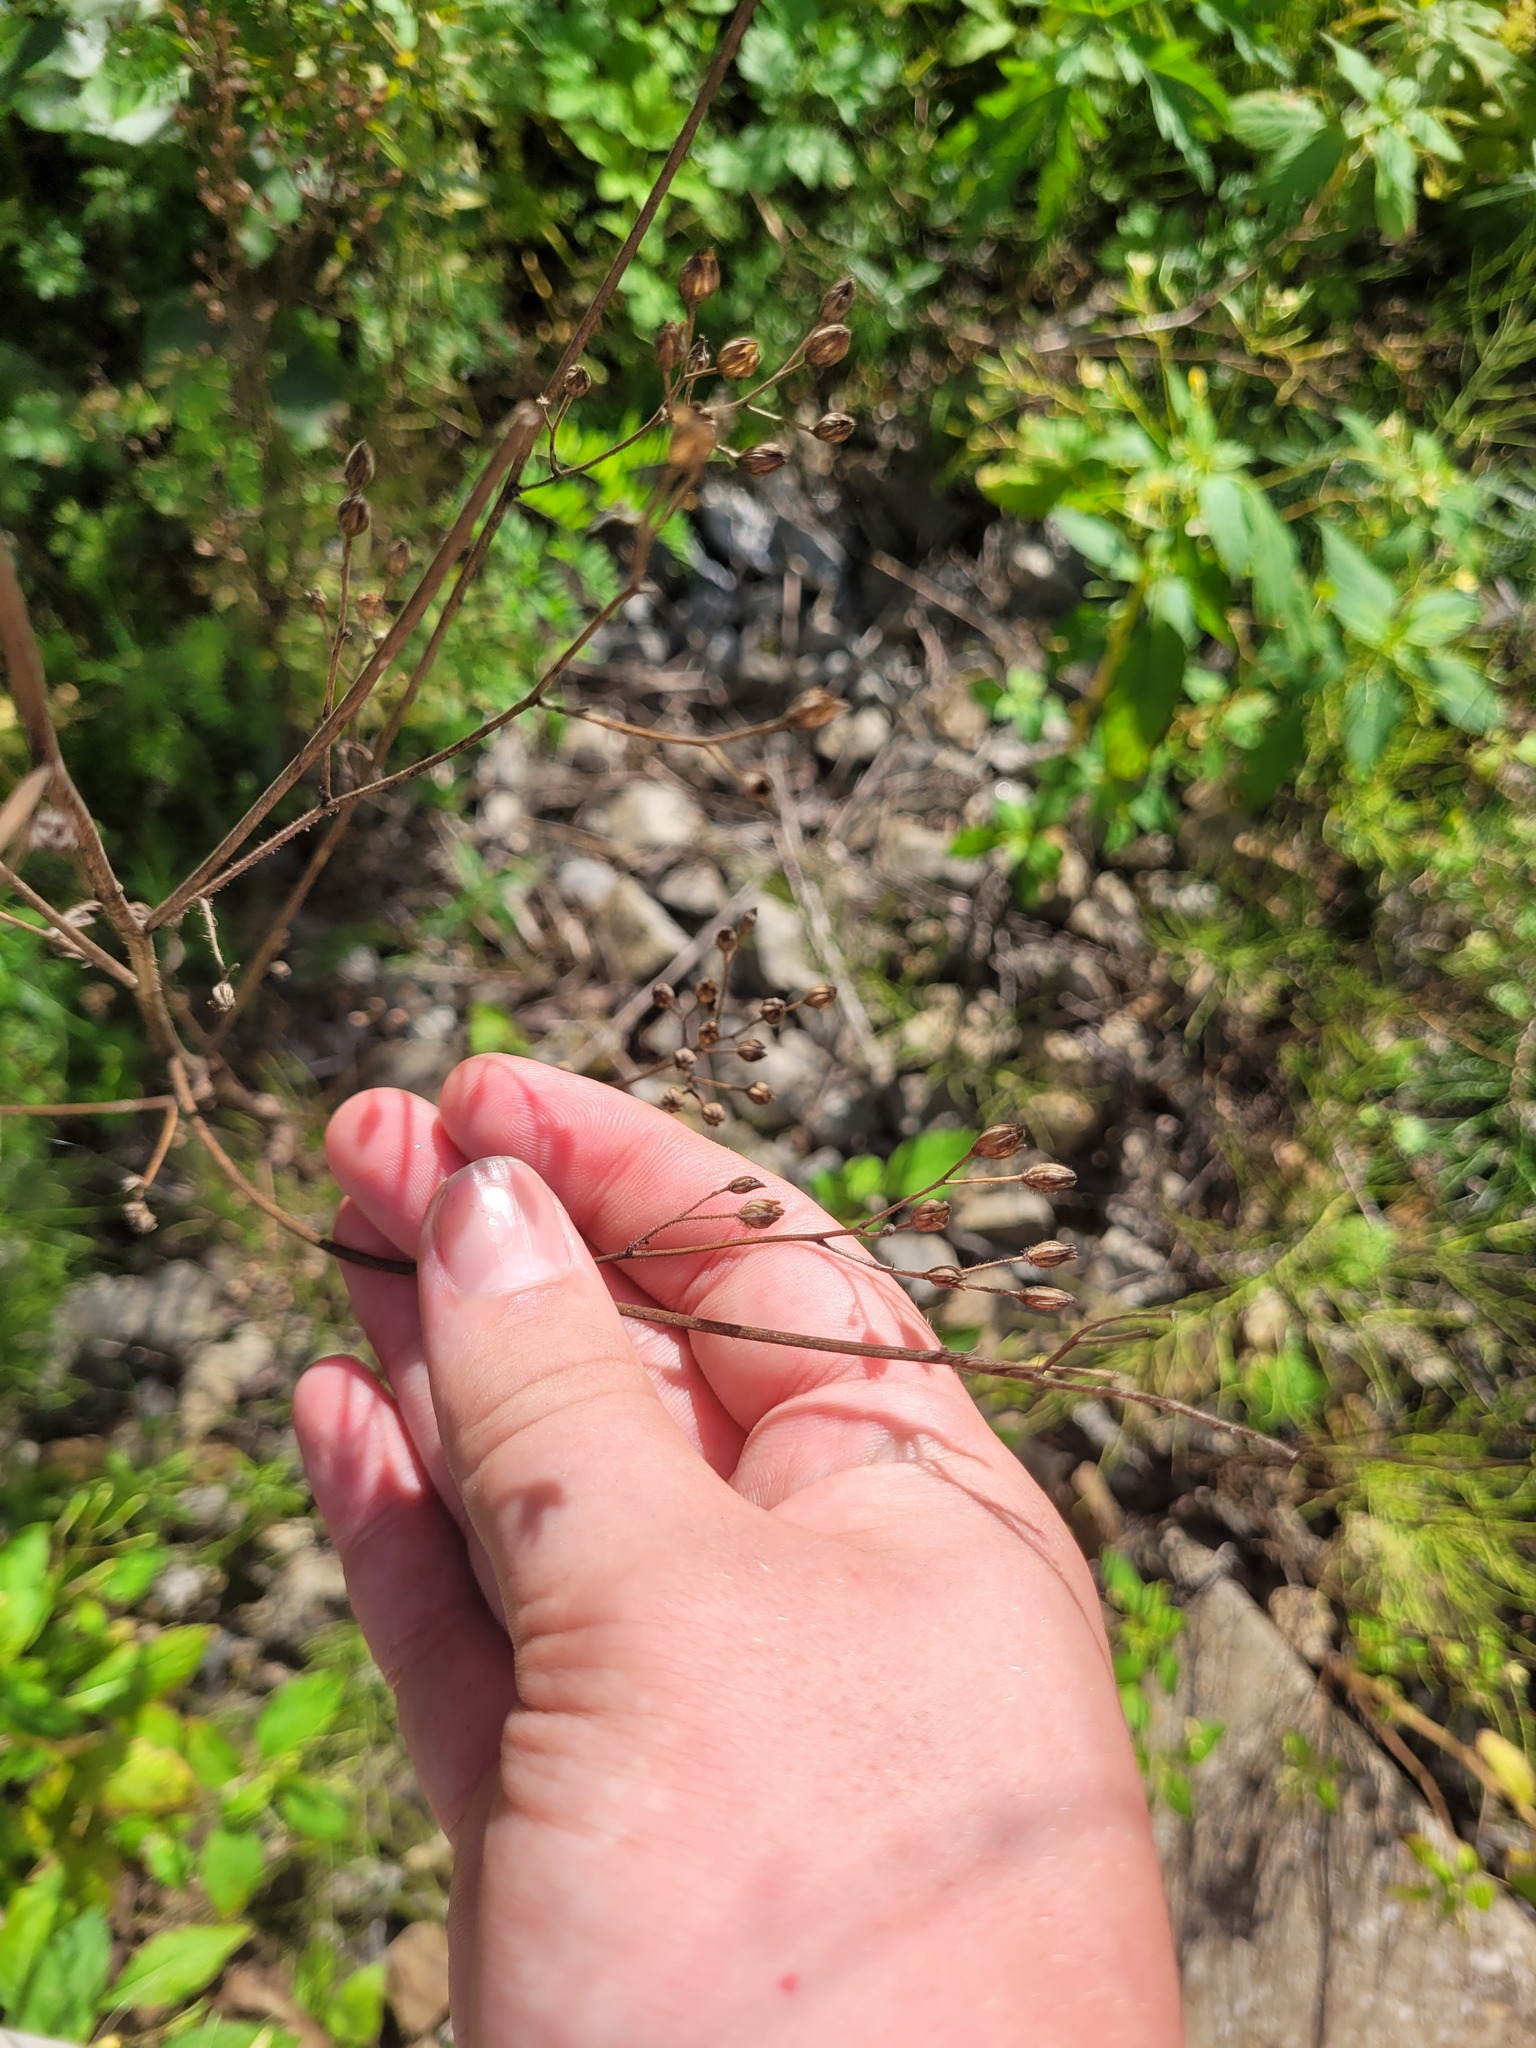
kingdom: Plantae
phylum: Tracheophyta
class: Magnoliopsida
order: Asterales
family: Asteraceae
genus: Lapsana
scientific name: Lapsana communis
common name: Nipplewort
